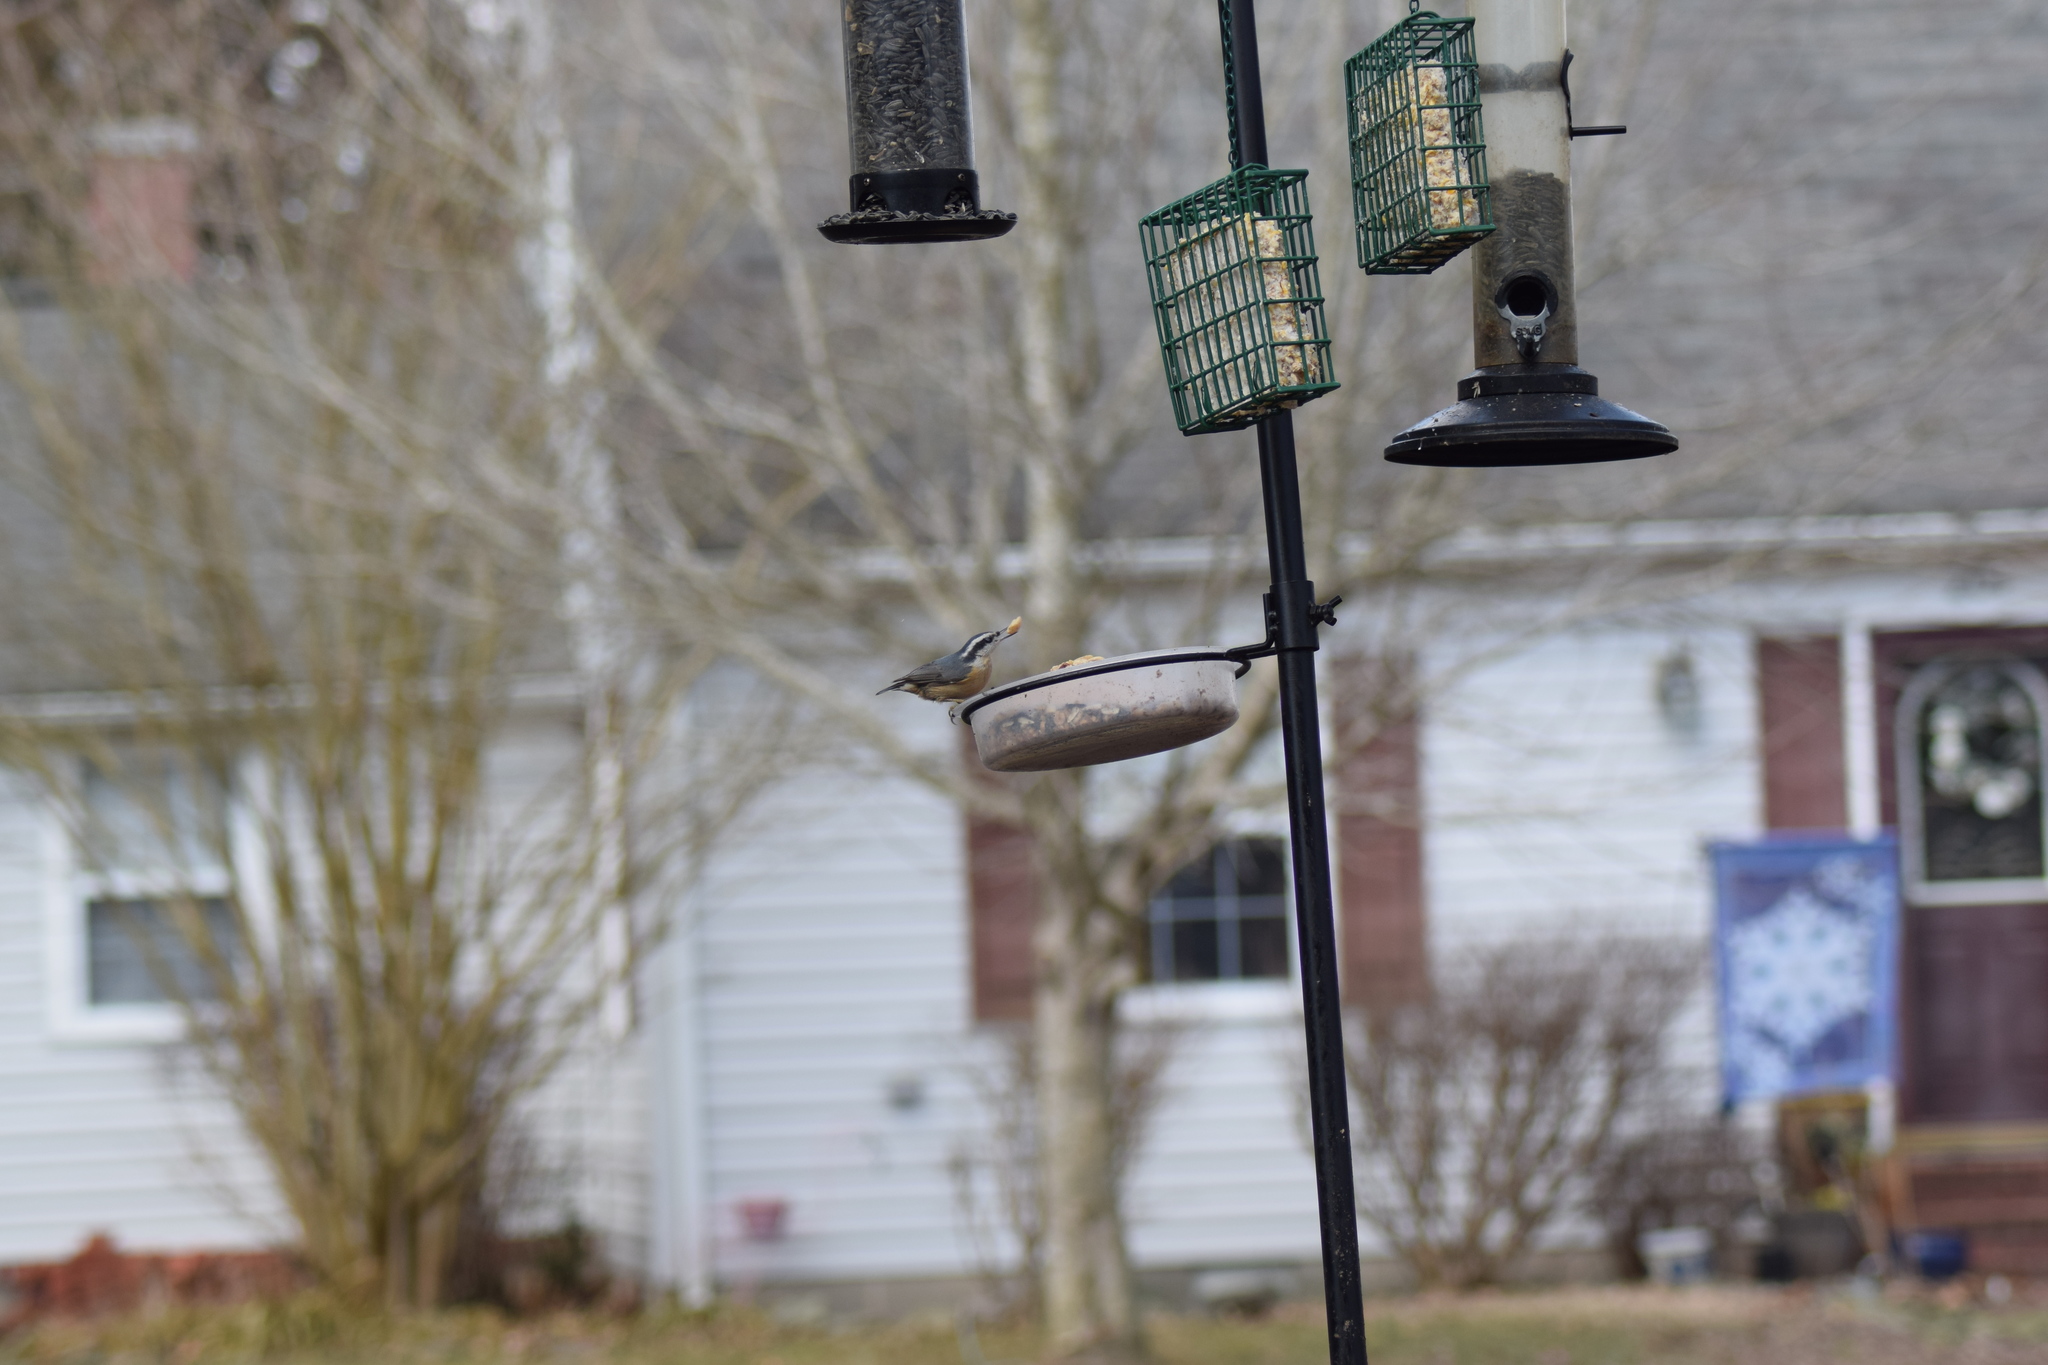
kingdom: Animalia
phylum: Chordata
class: Aves
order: Passeriformes
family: Sittidae
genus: Sitta
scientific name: Sitta canadensis
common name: Red-breasted nuthatch
